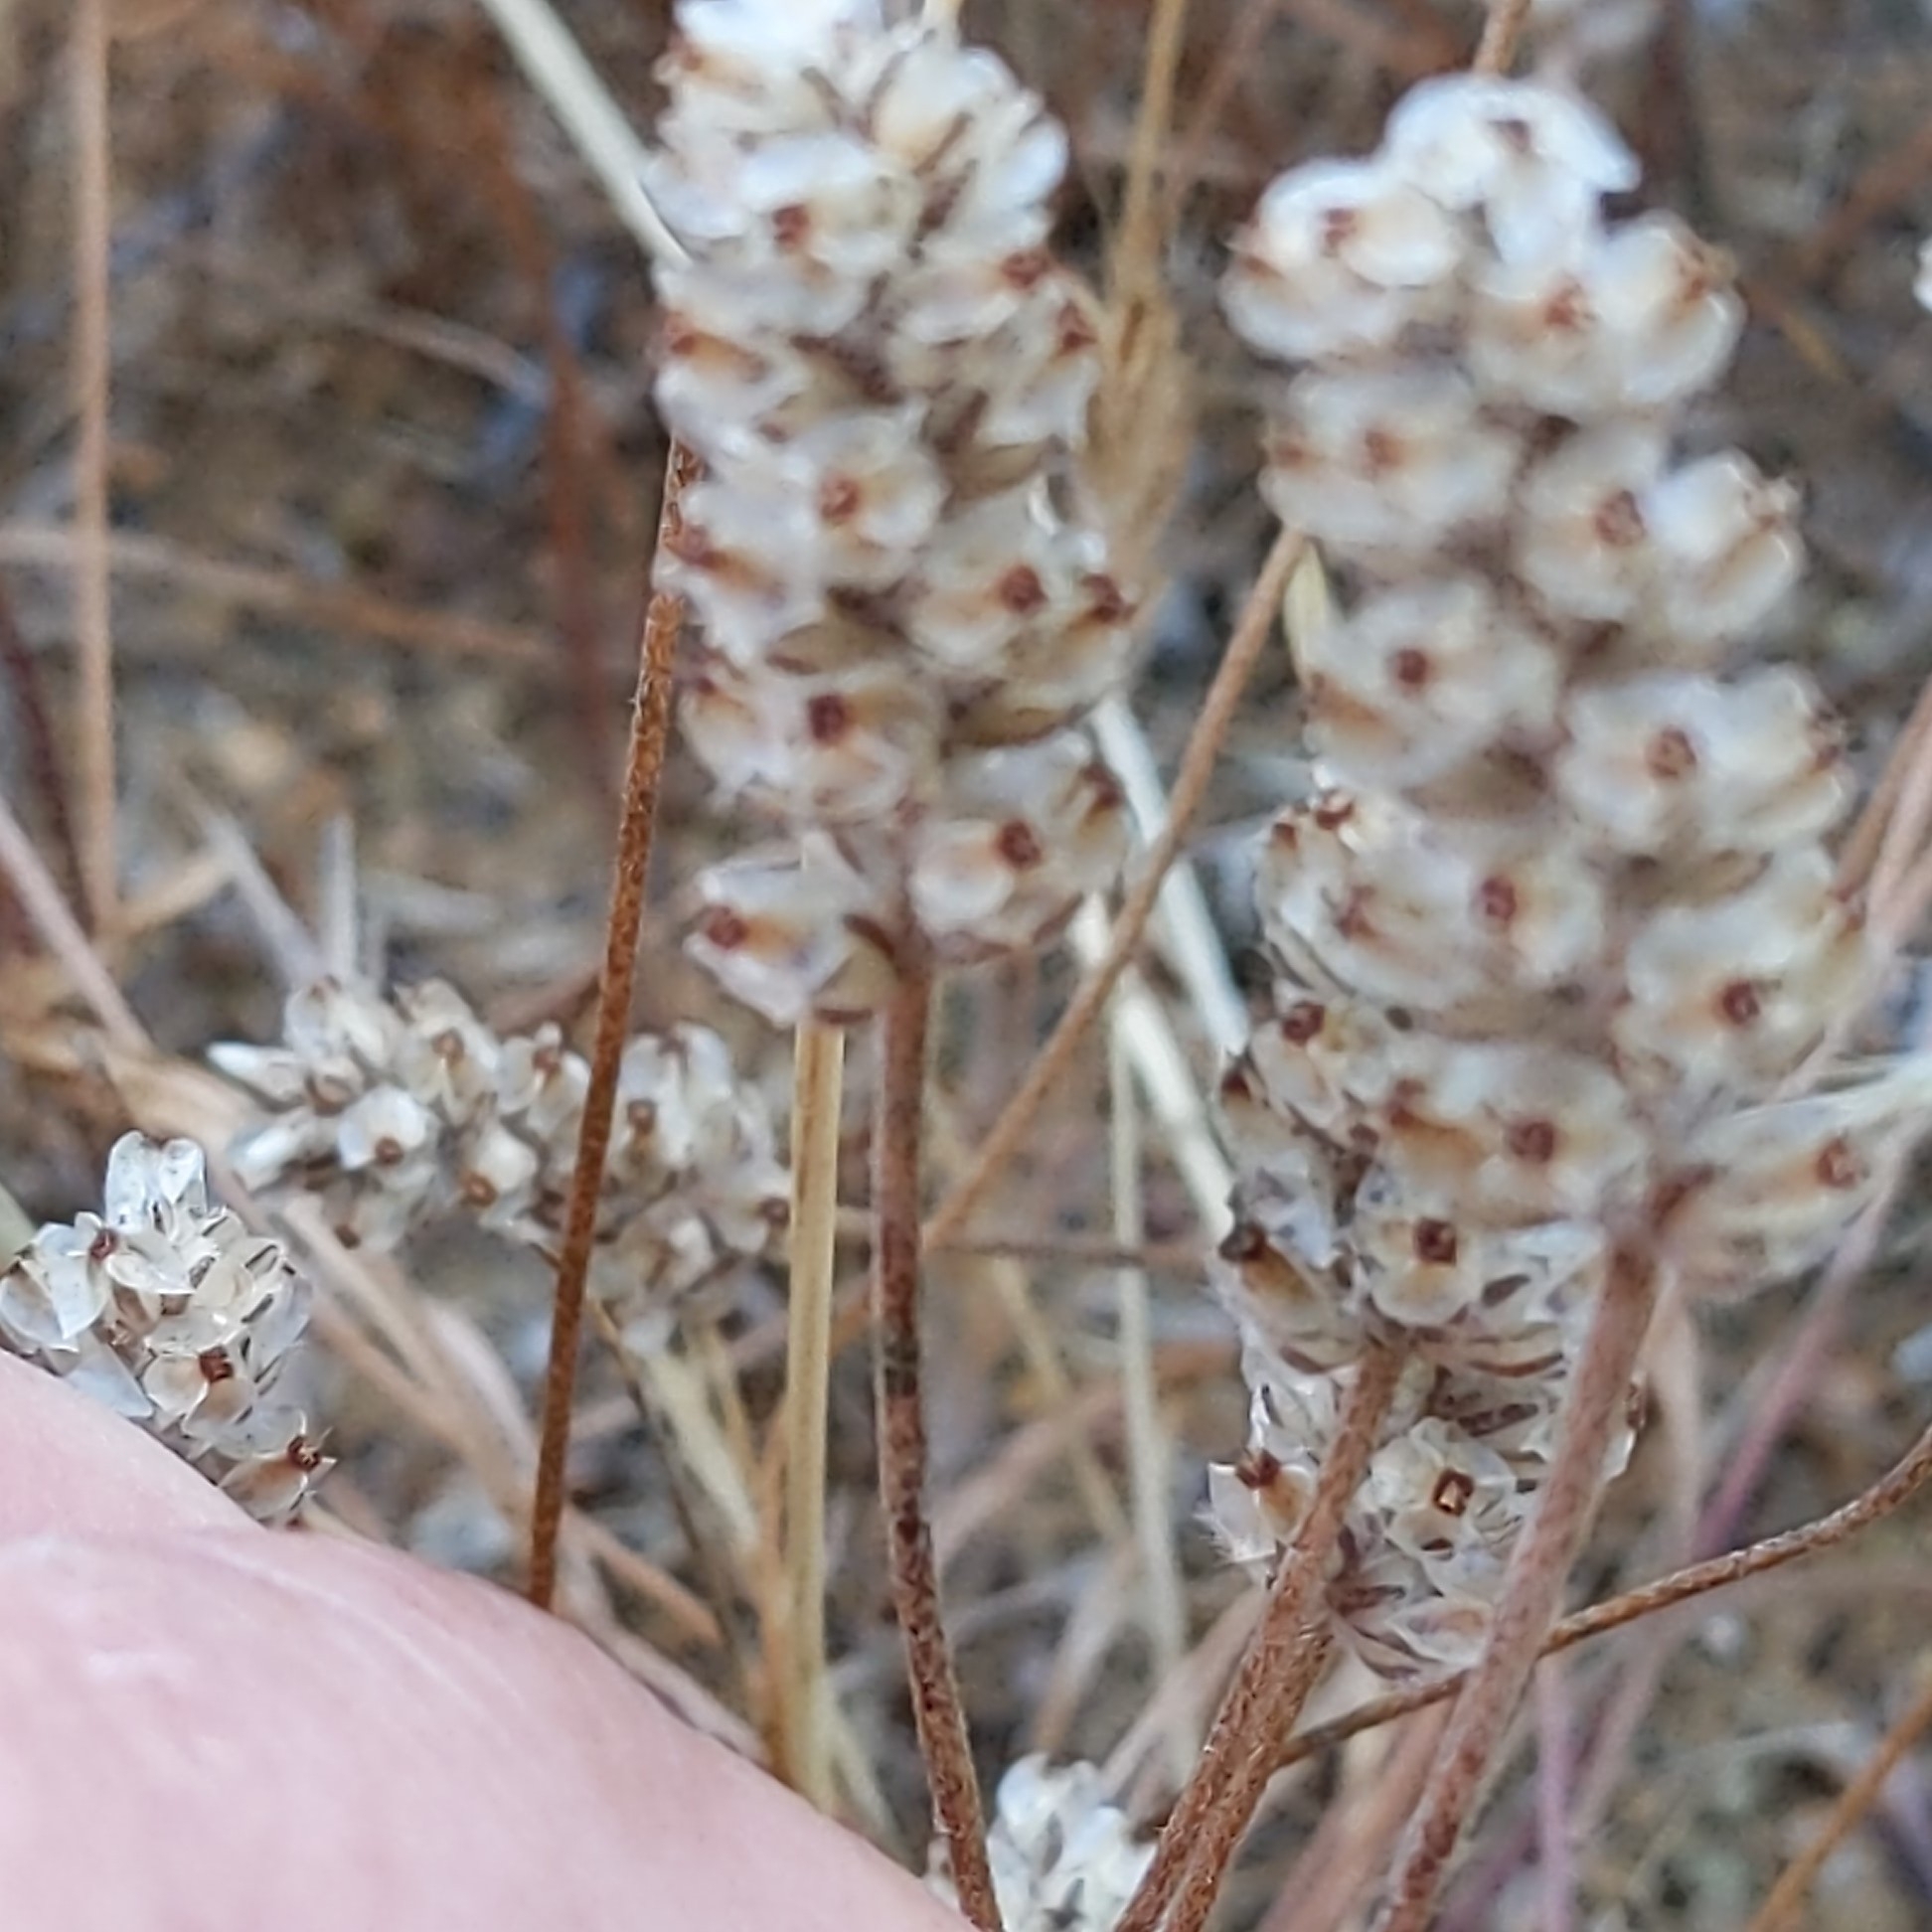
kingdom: Plantae
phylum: Tracheophyta
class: Magnoliopsida
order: Lamiales
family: Plantaginaceae
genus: Plantago
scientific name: Plantago erecta
